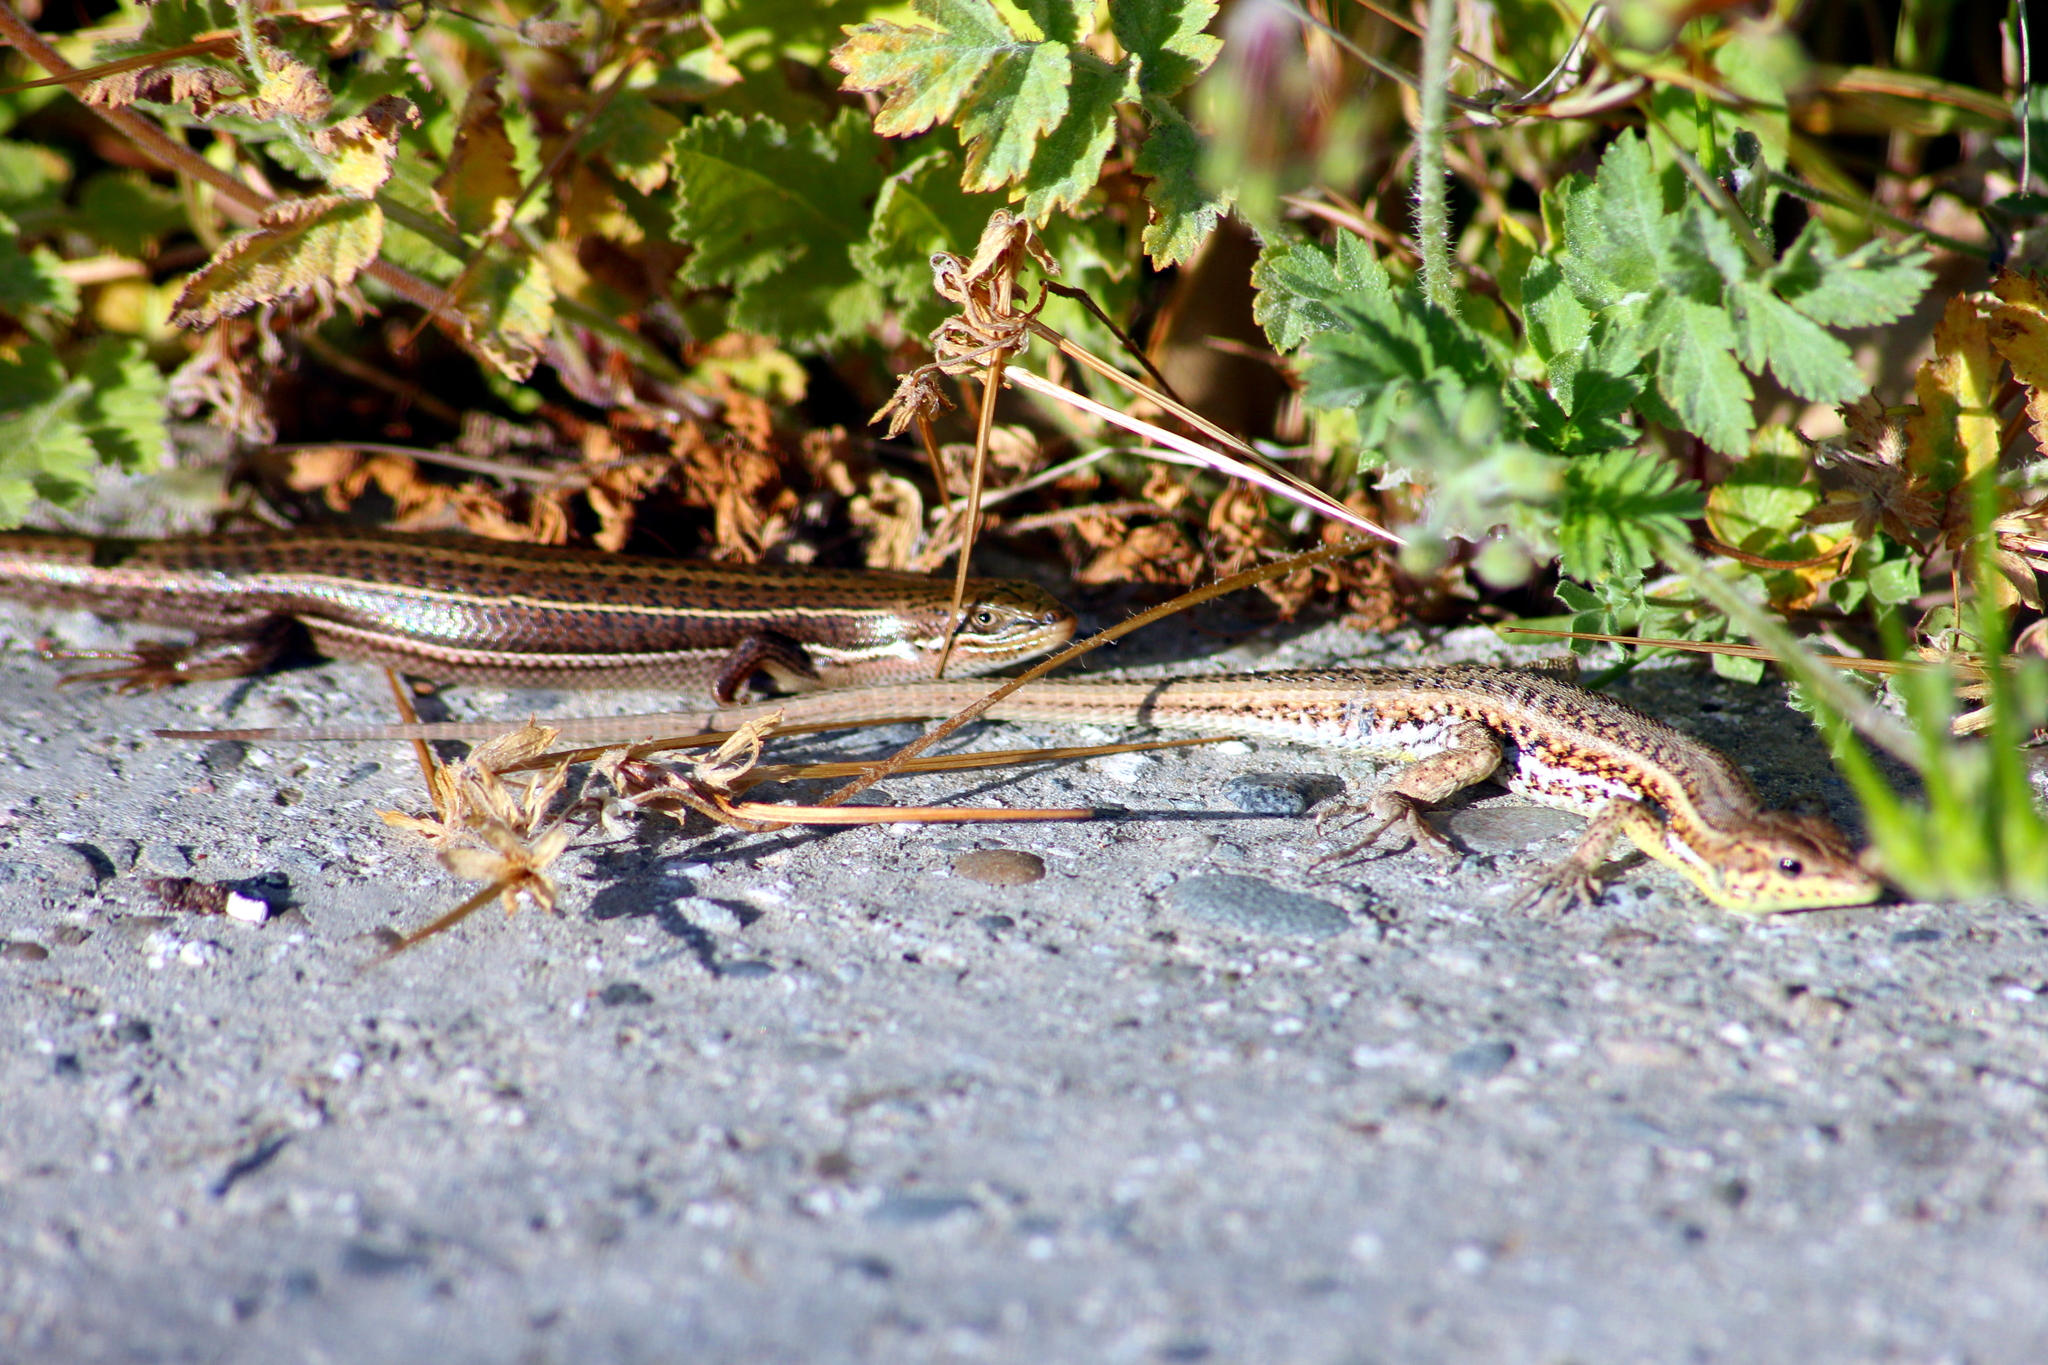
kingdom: Animalia
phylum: Chordata
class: Squamata
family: Scincidae
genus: Heremites
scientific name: Heremites vittatus
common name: Bridled mabuya
